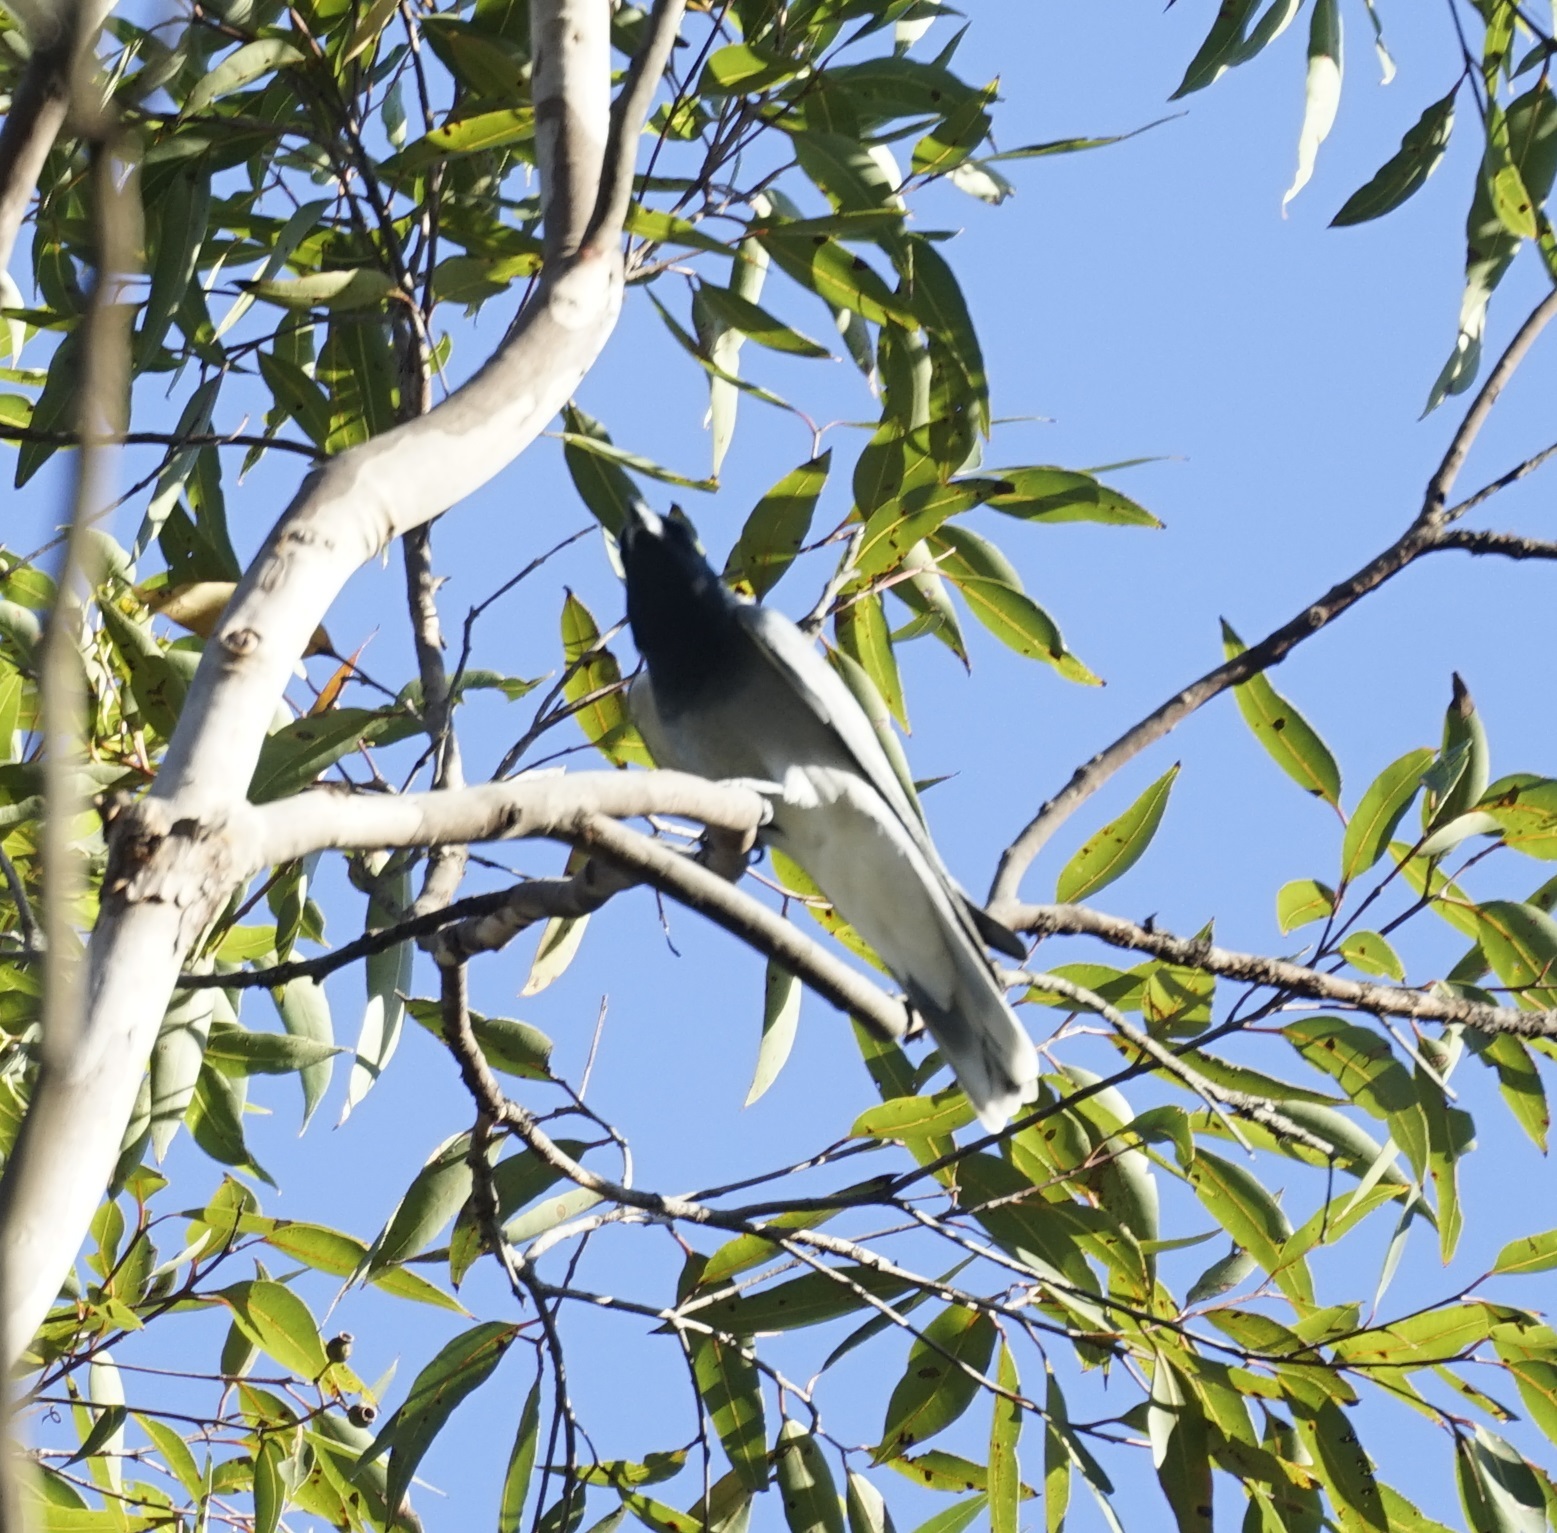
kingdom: Animalia
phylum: Chordata
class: Aves
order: Passeriformes
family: Campephagidae
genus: Coracina
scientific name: Coracina novaehollandiae
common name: Black-faced cuckooshrike
